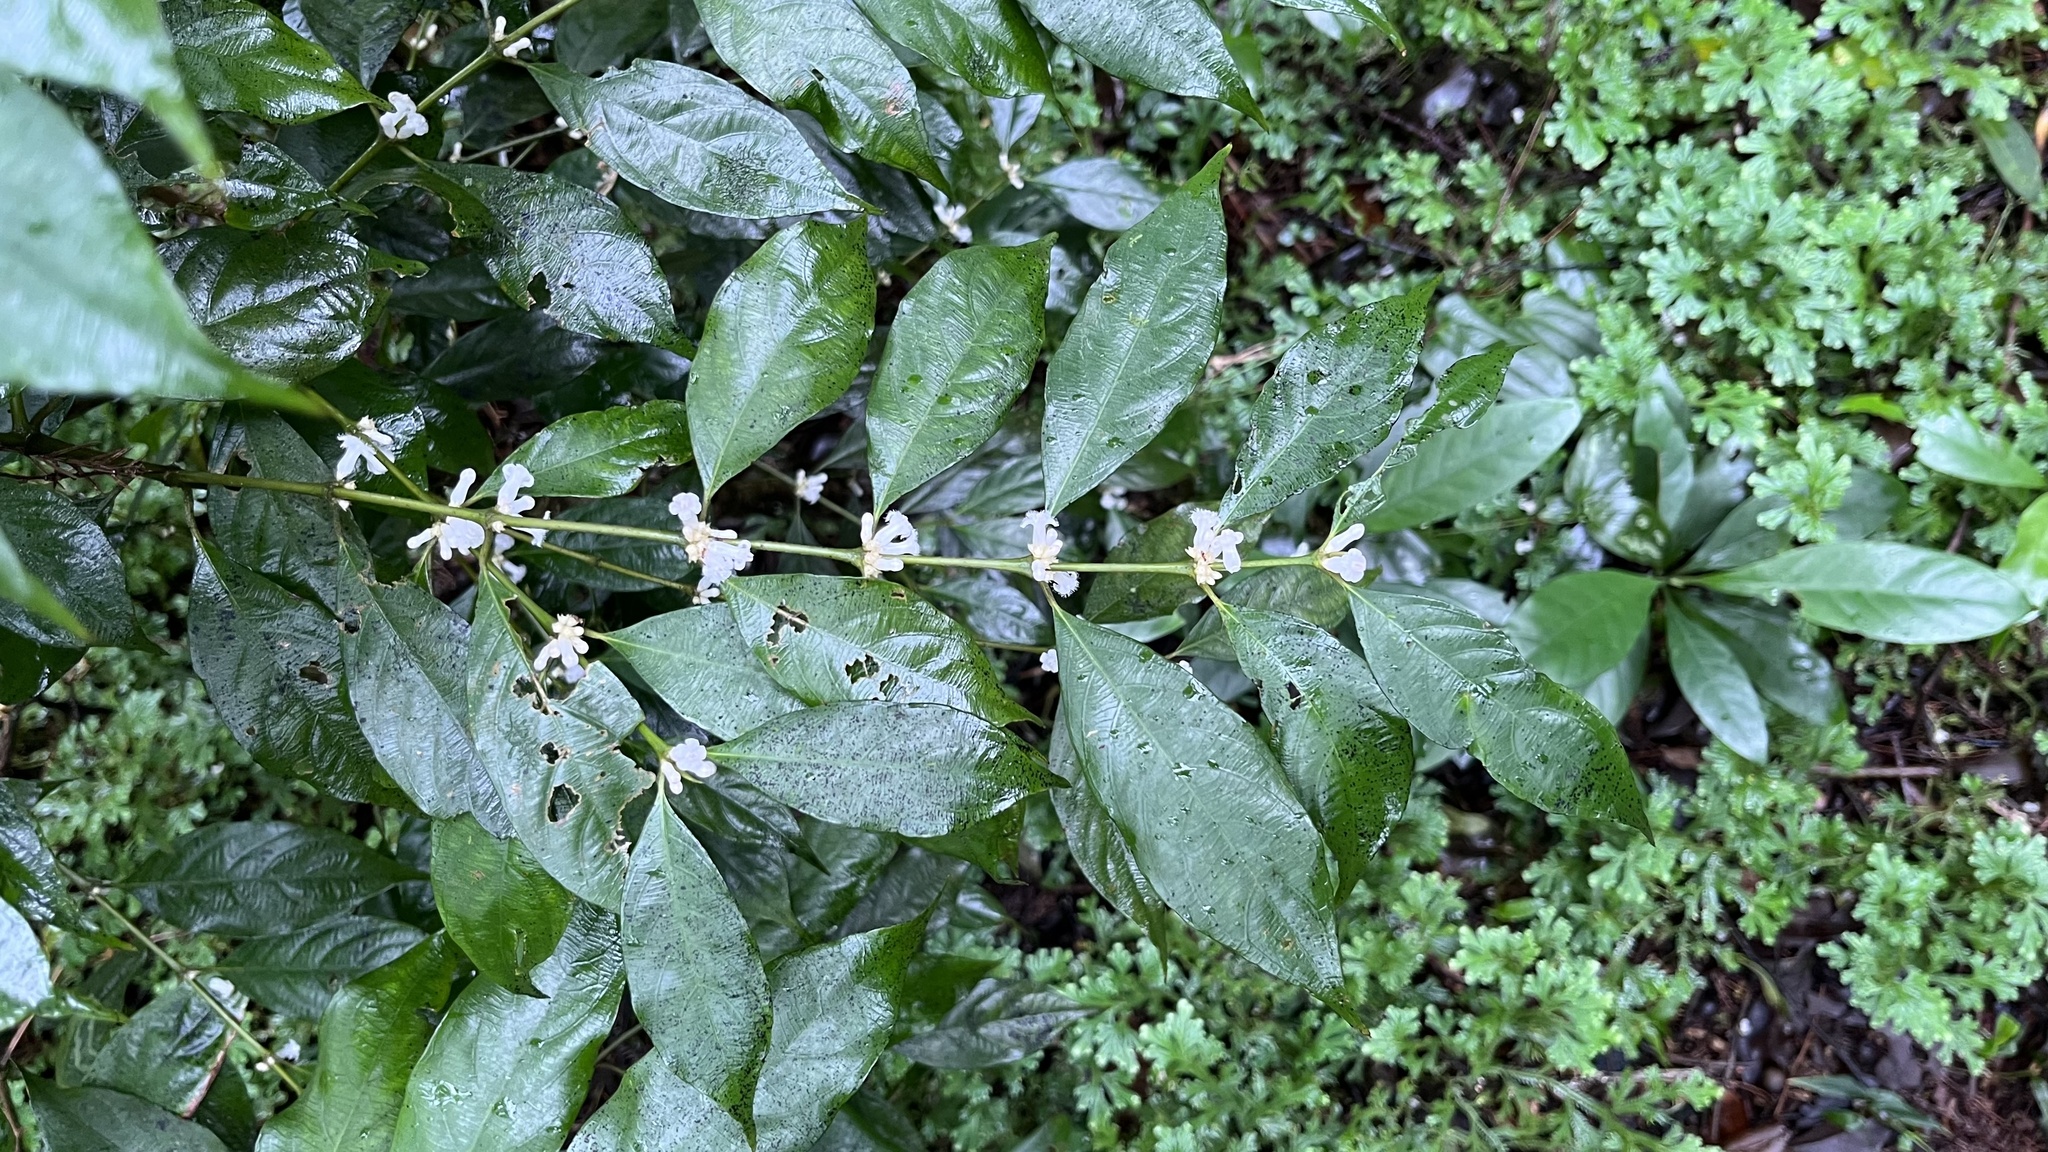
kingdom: Plantae
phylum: Tracheophyta
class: Magnoliopsida
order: Gentianales
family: Rubiaceae
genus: Lasianthus
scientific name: Lasianthus fordii
